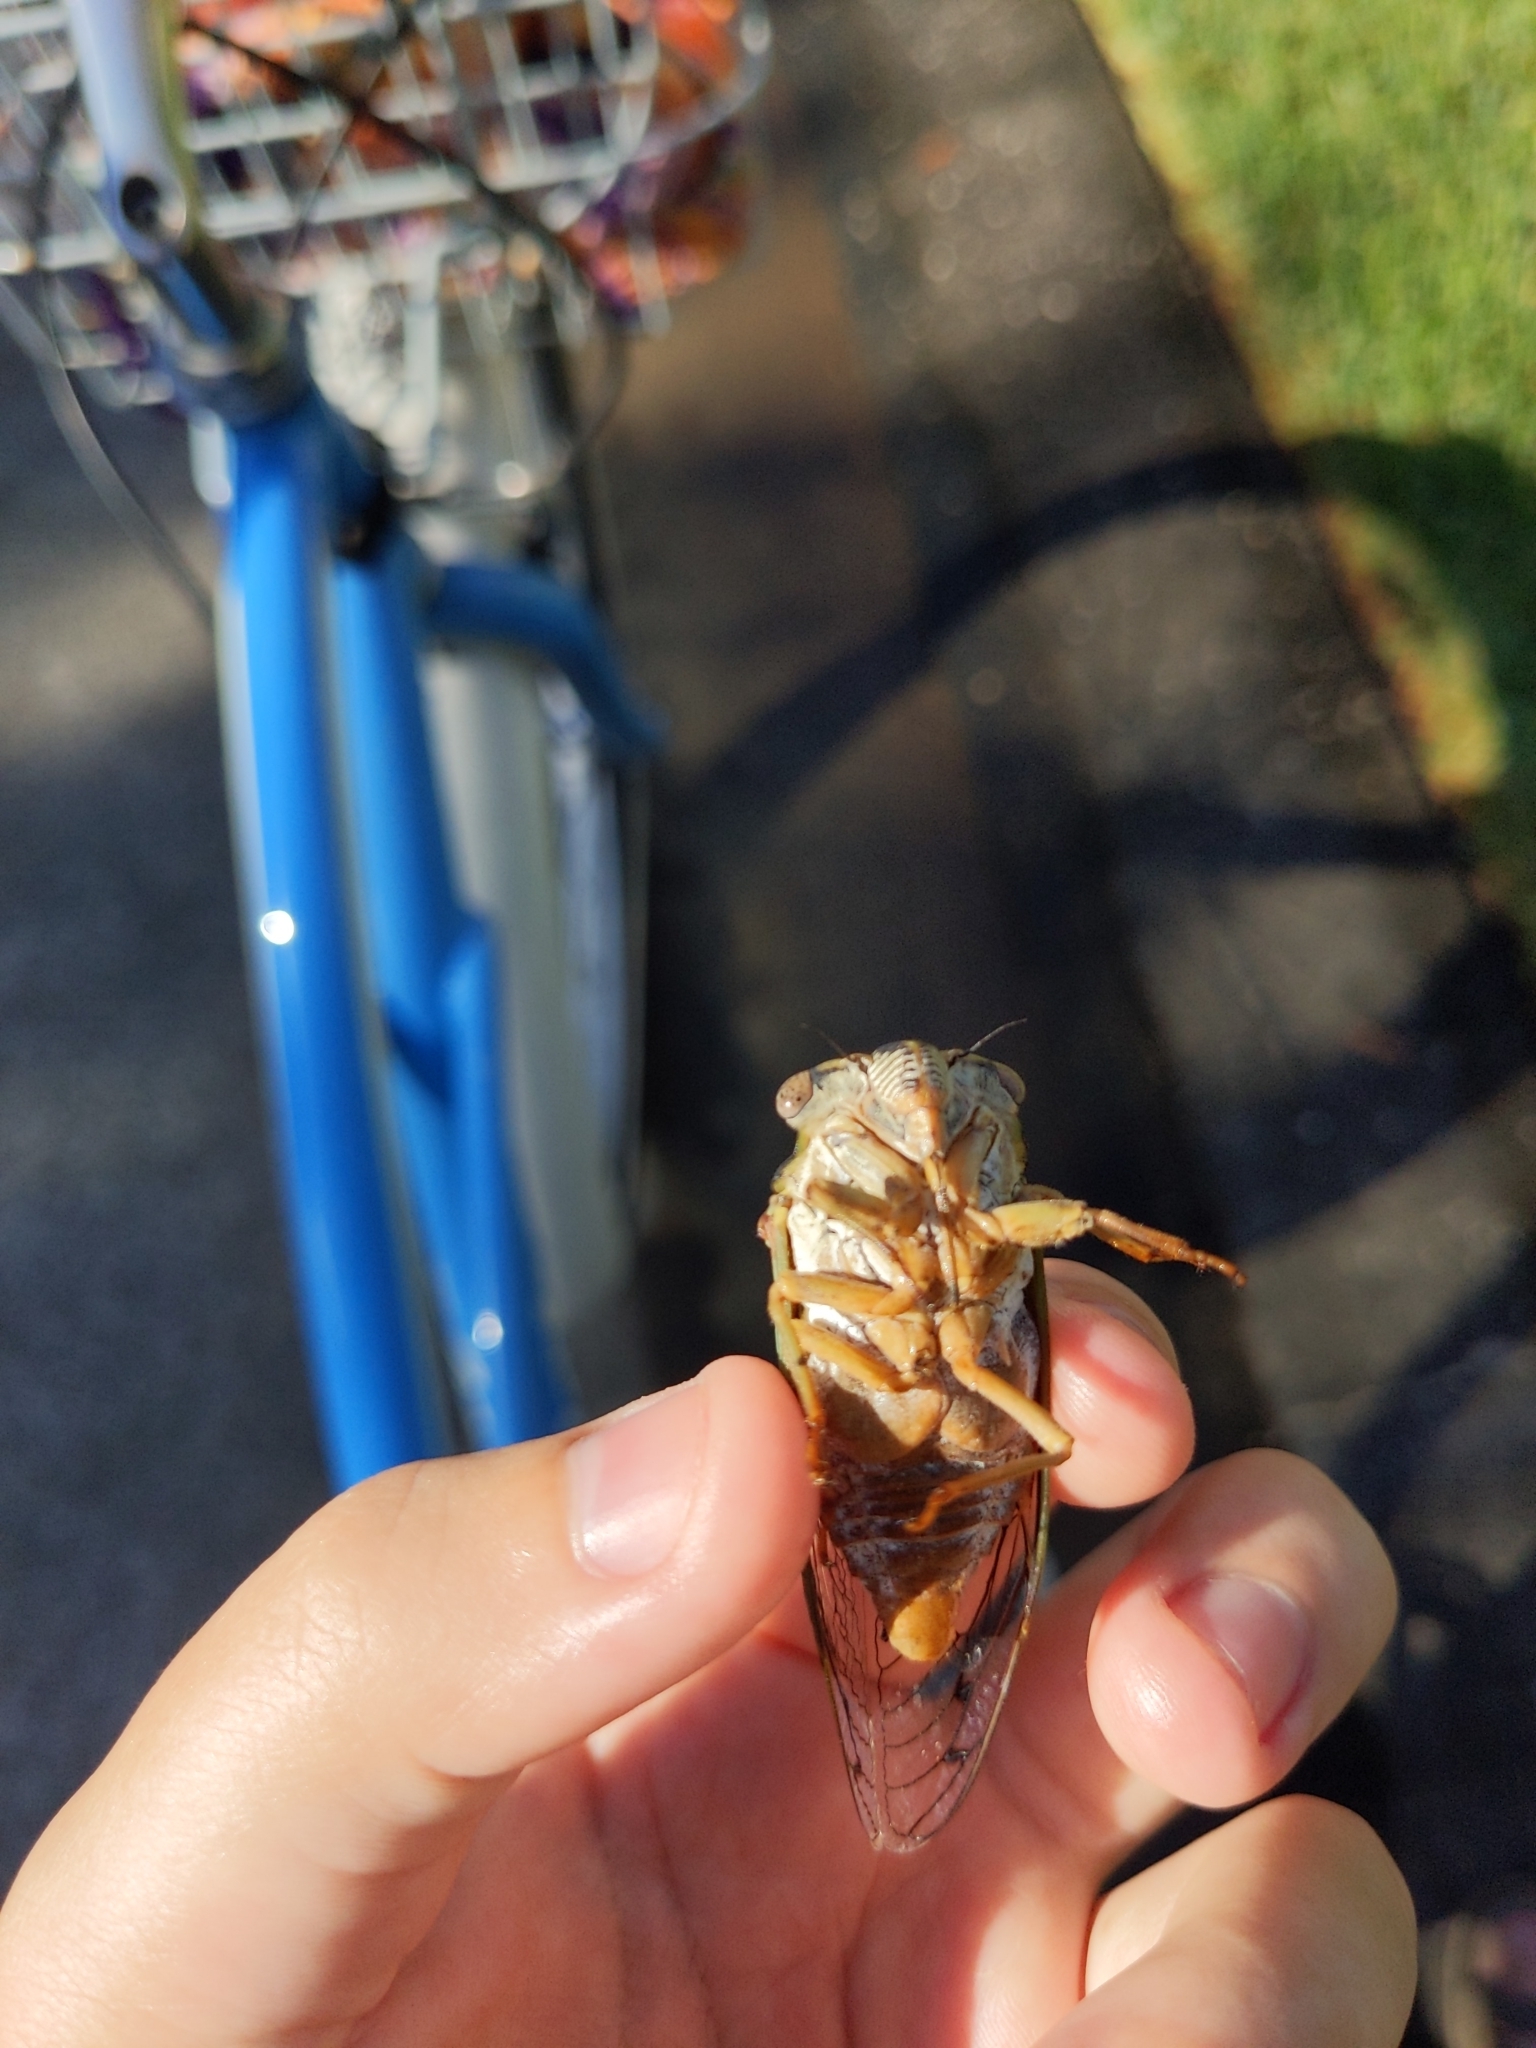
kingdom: Animalia
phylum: Arthropoda
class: Insecta
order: Hemiptera
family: Cicadidae
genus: Megatibicen
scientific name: Megatibicen resh
